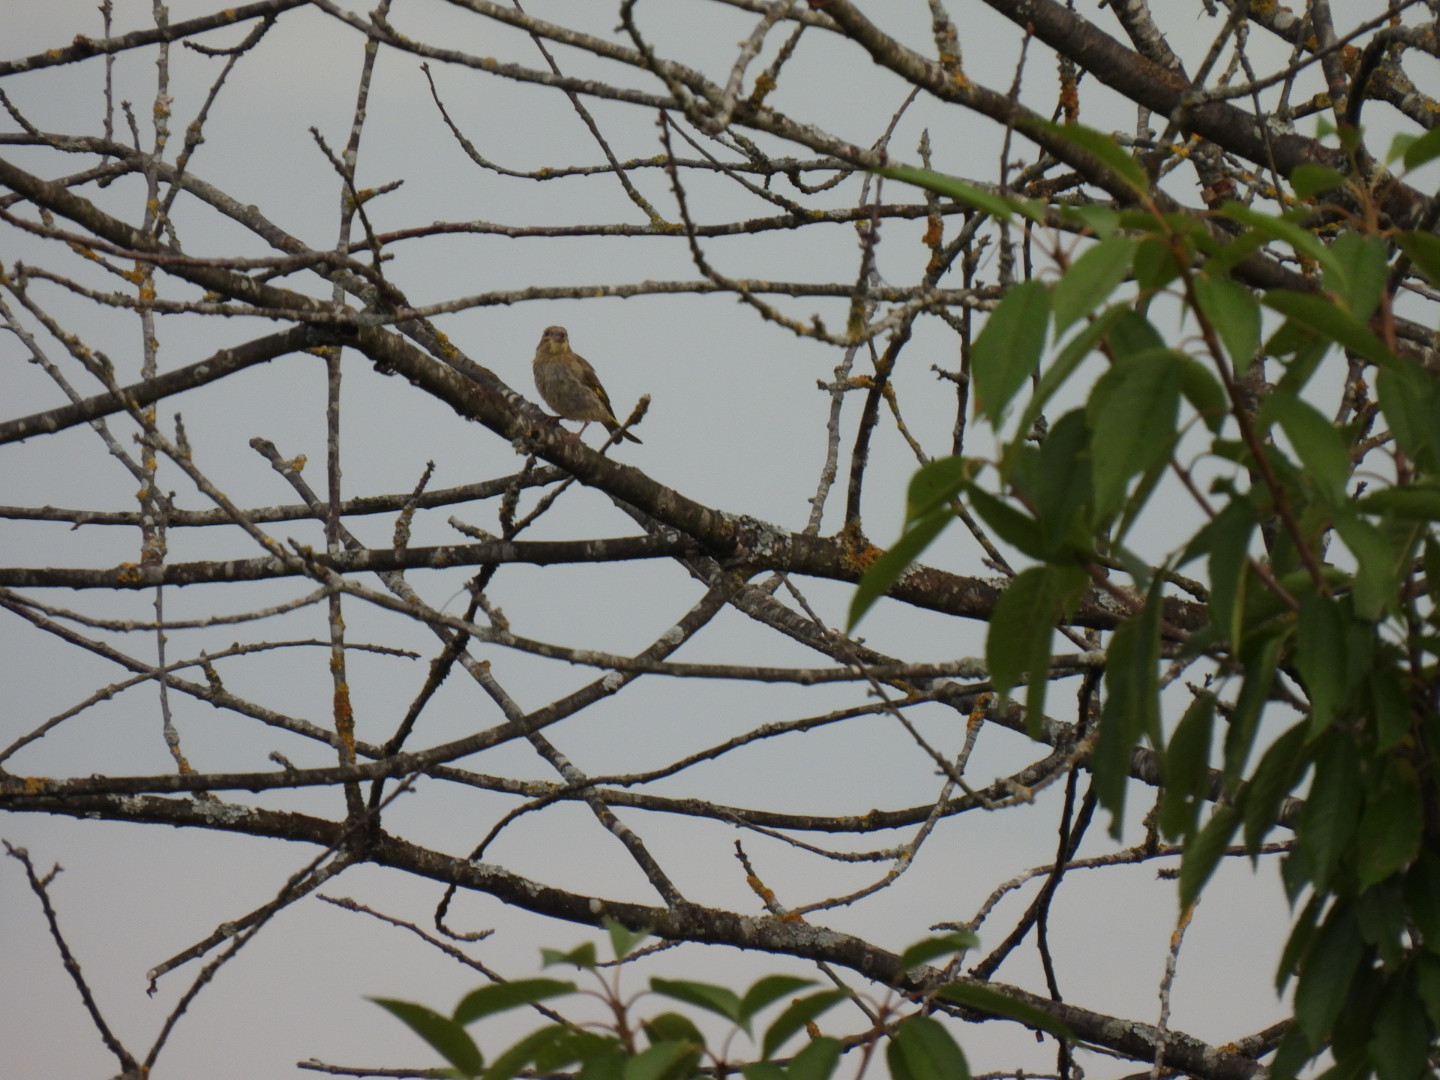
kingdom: Plantae
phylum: Tracheophyta
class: Liliopsida
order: Poales
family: Poaceae
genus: Chloris
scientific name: Chloris chloris
